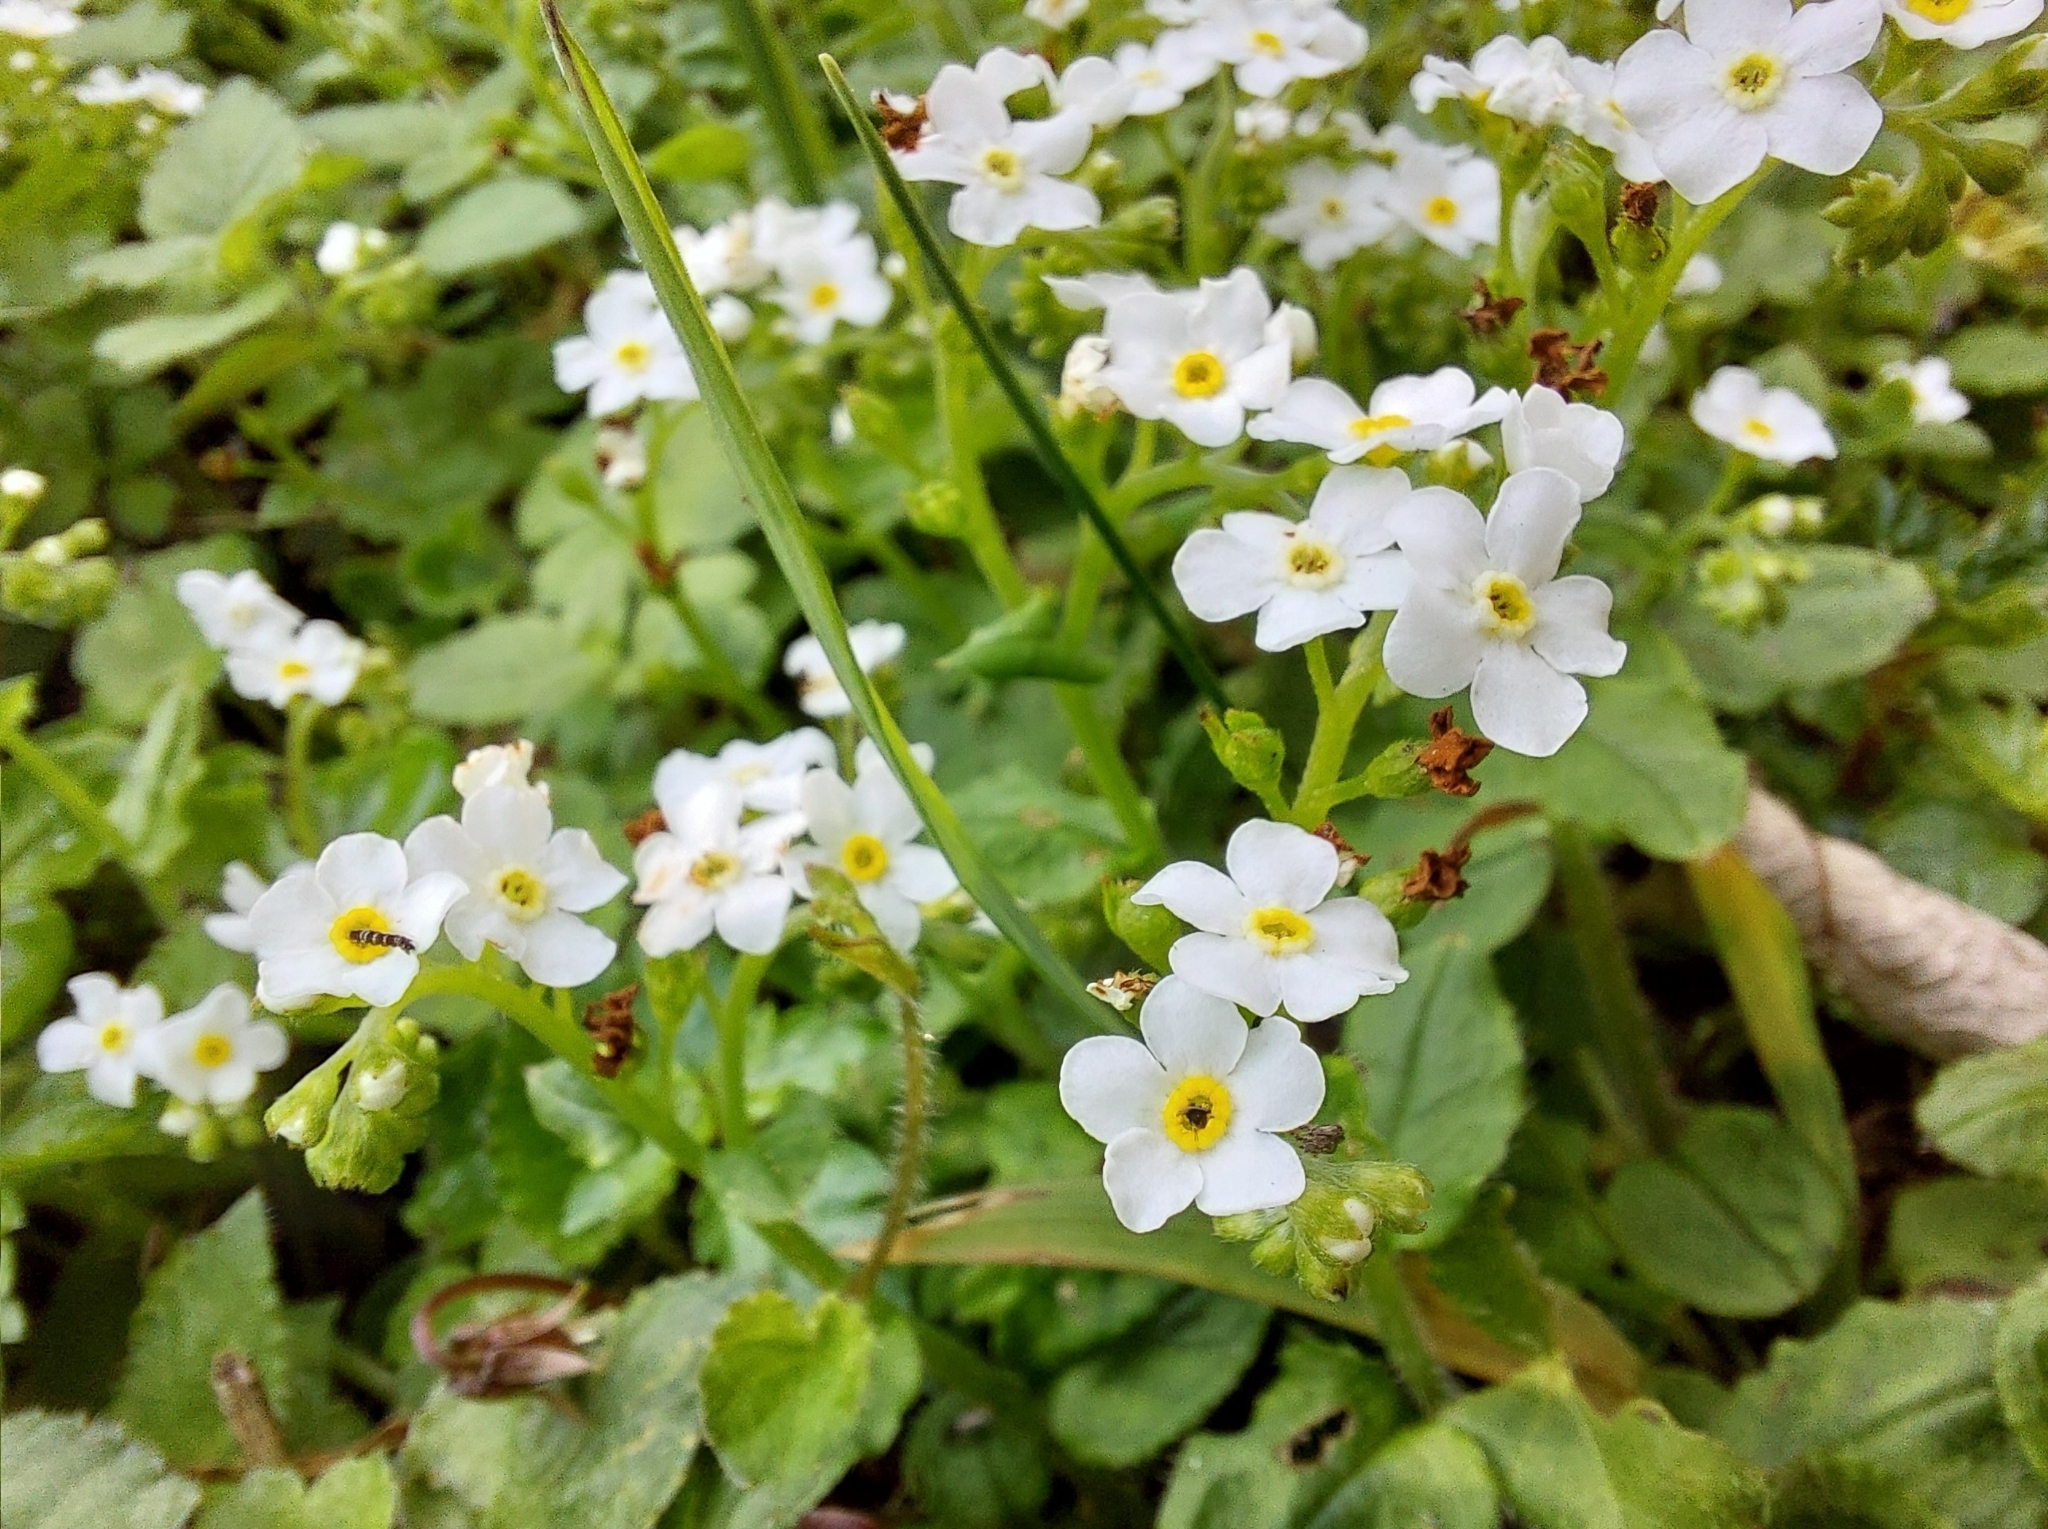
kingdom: Plantae
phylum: Tracheophyta
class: Magnoliopsida
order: Boraginales
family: Boraginaceae
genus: Trigonotis
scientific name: Trigonotis formosana
